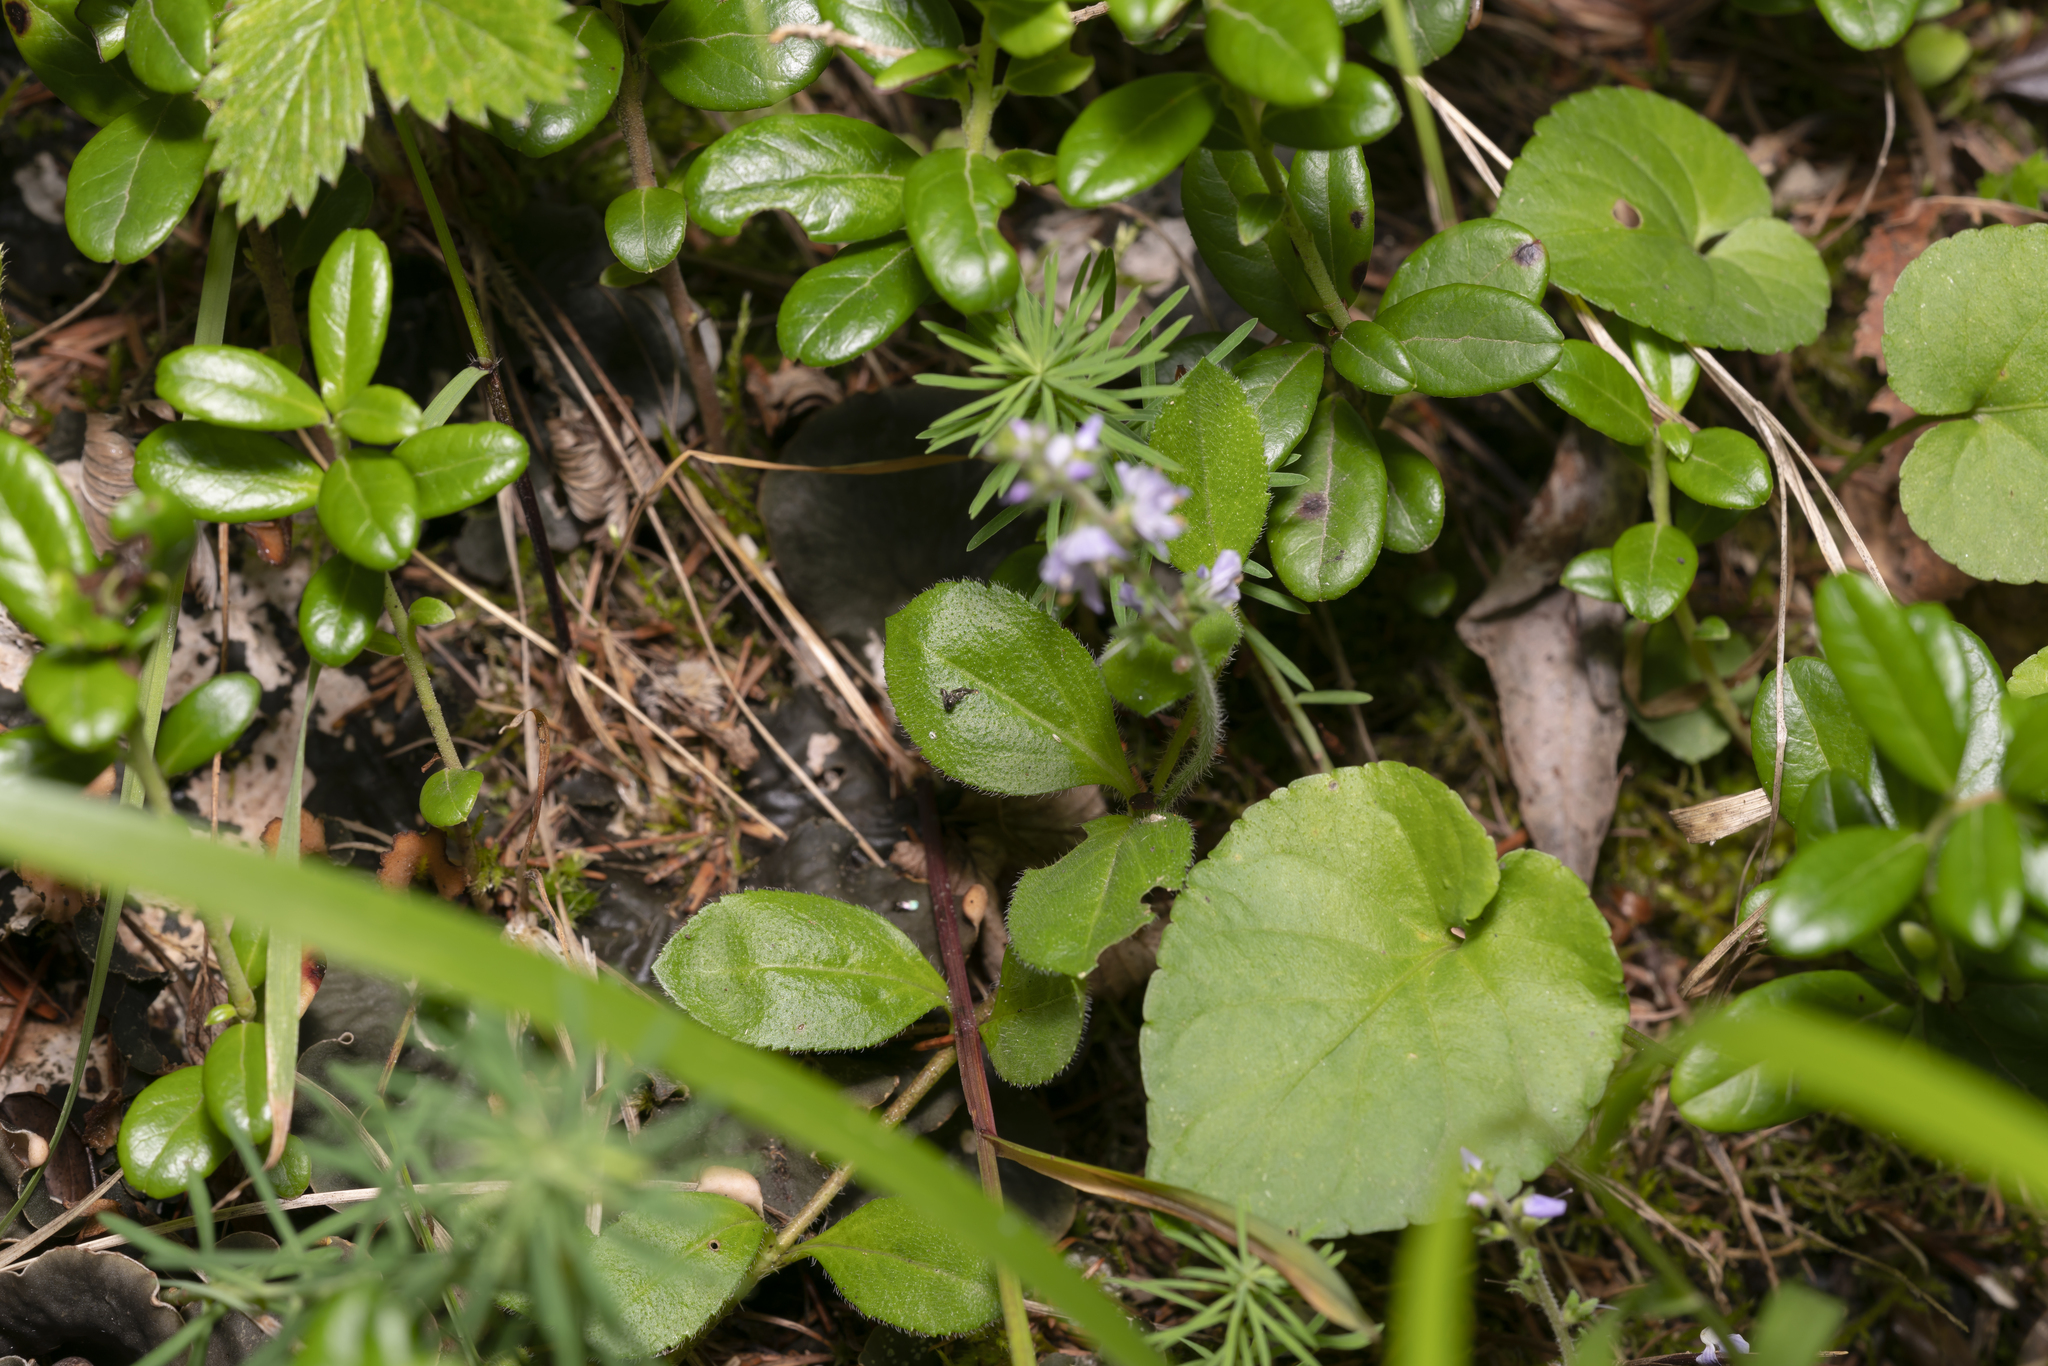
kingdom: Plantae
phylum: Tracheophyta
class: Magnoliopsida
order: Lamiales
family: Plantaginaceae
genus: Veronica
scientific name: Veronica officinalis
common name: Common speedwell
